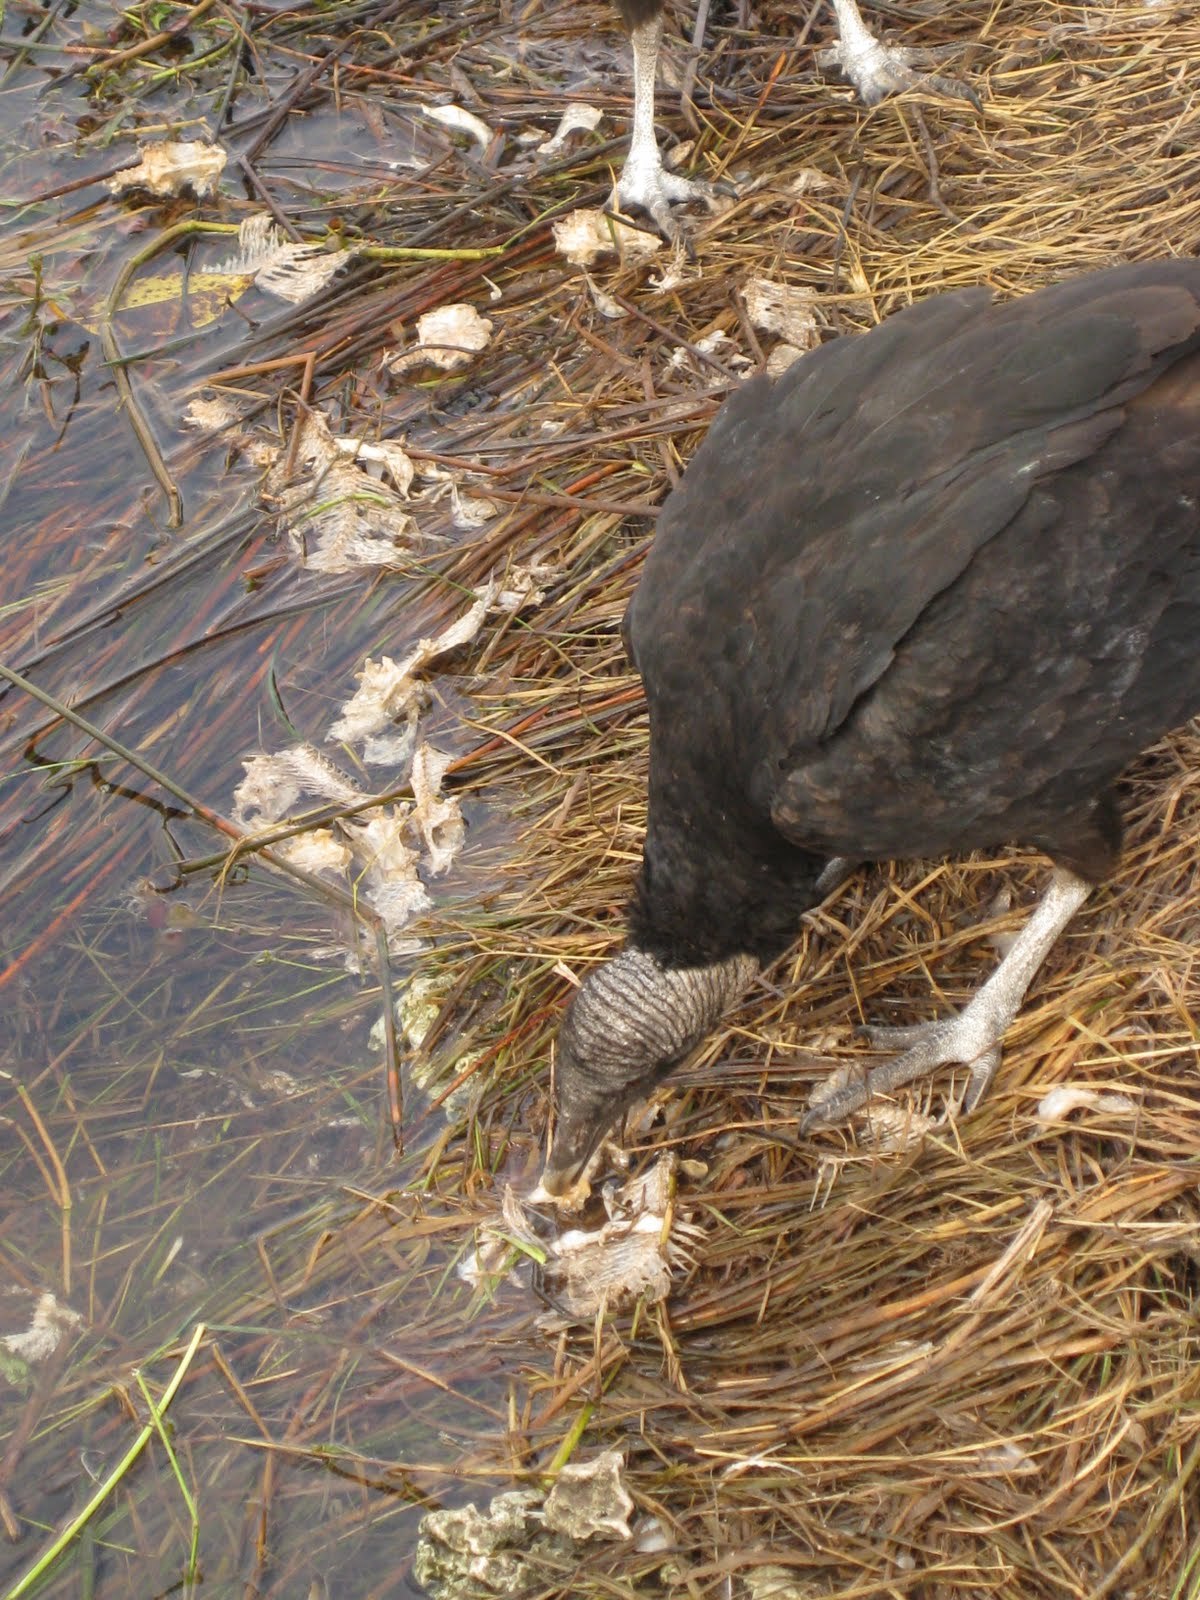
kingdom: Animalia
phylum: Chordata
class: Aves
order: Accipitriformes
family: Cathartidae
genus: Coragyps
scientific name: Coragyps atratus
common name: Black vulture
